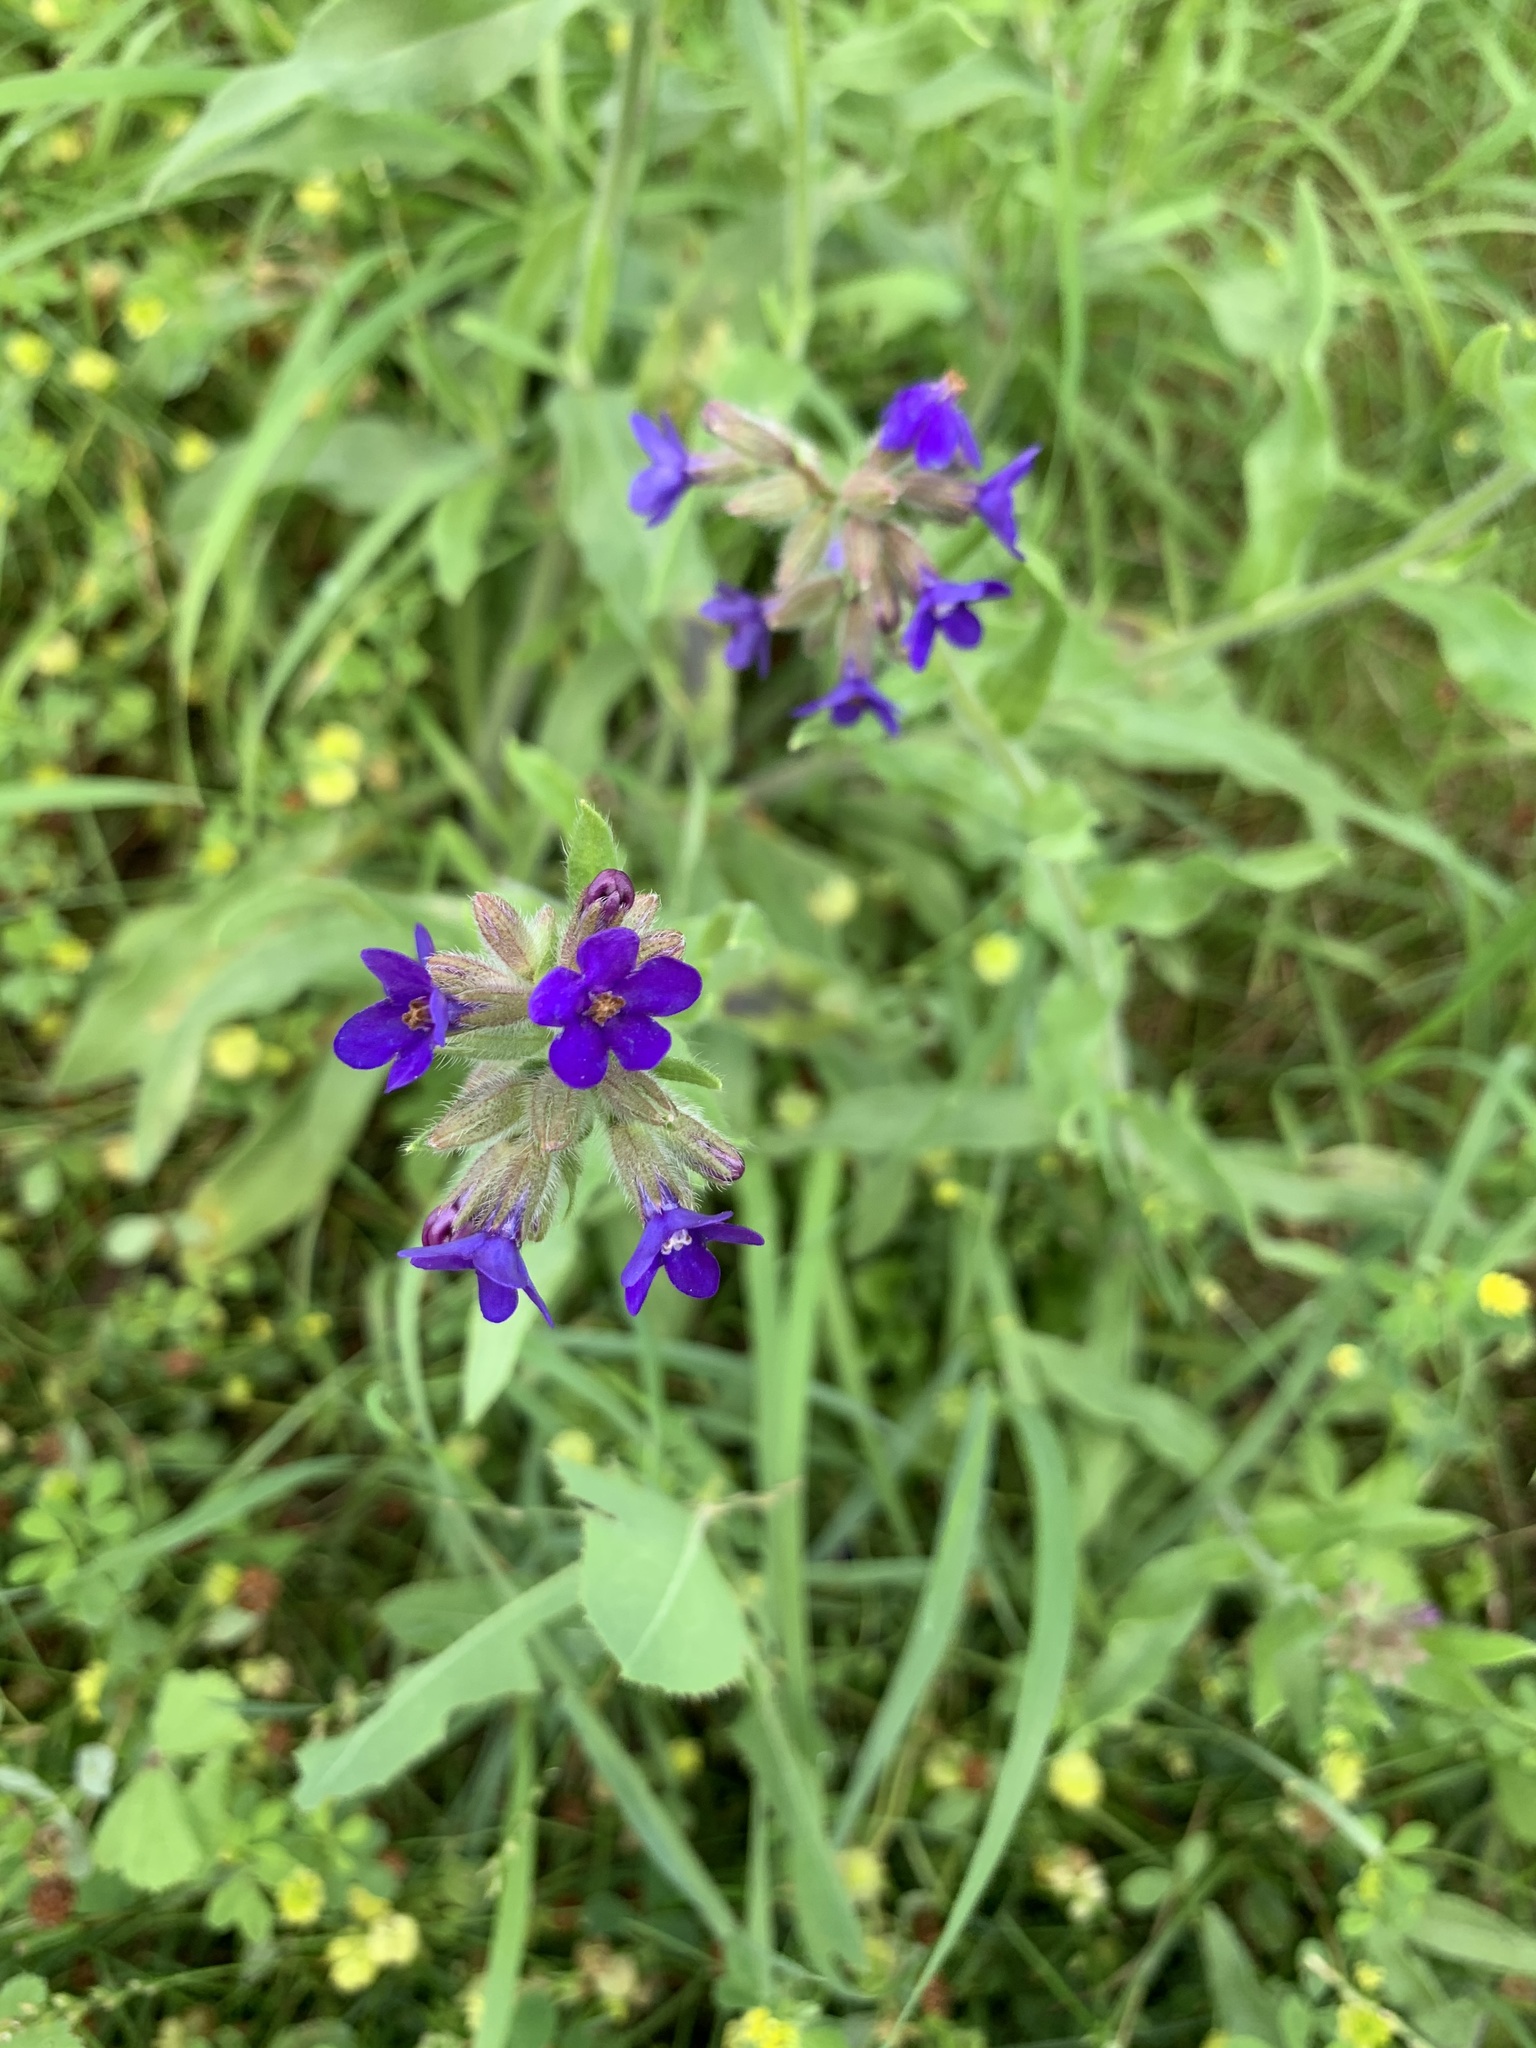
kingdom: Plantae
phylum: Tracheophyta
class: Magnoliopsida
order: Boraginales
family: Boraginaceae
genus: Anchusa
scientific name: Anchusa officinalis
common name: Alkanet
